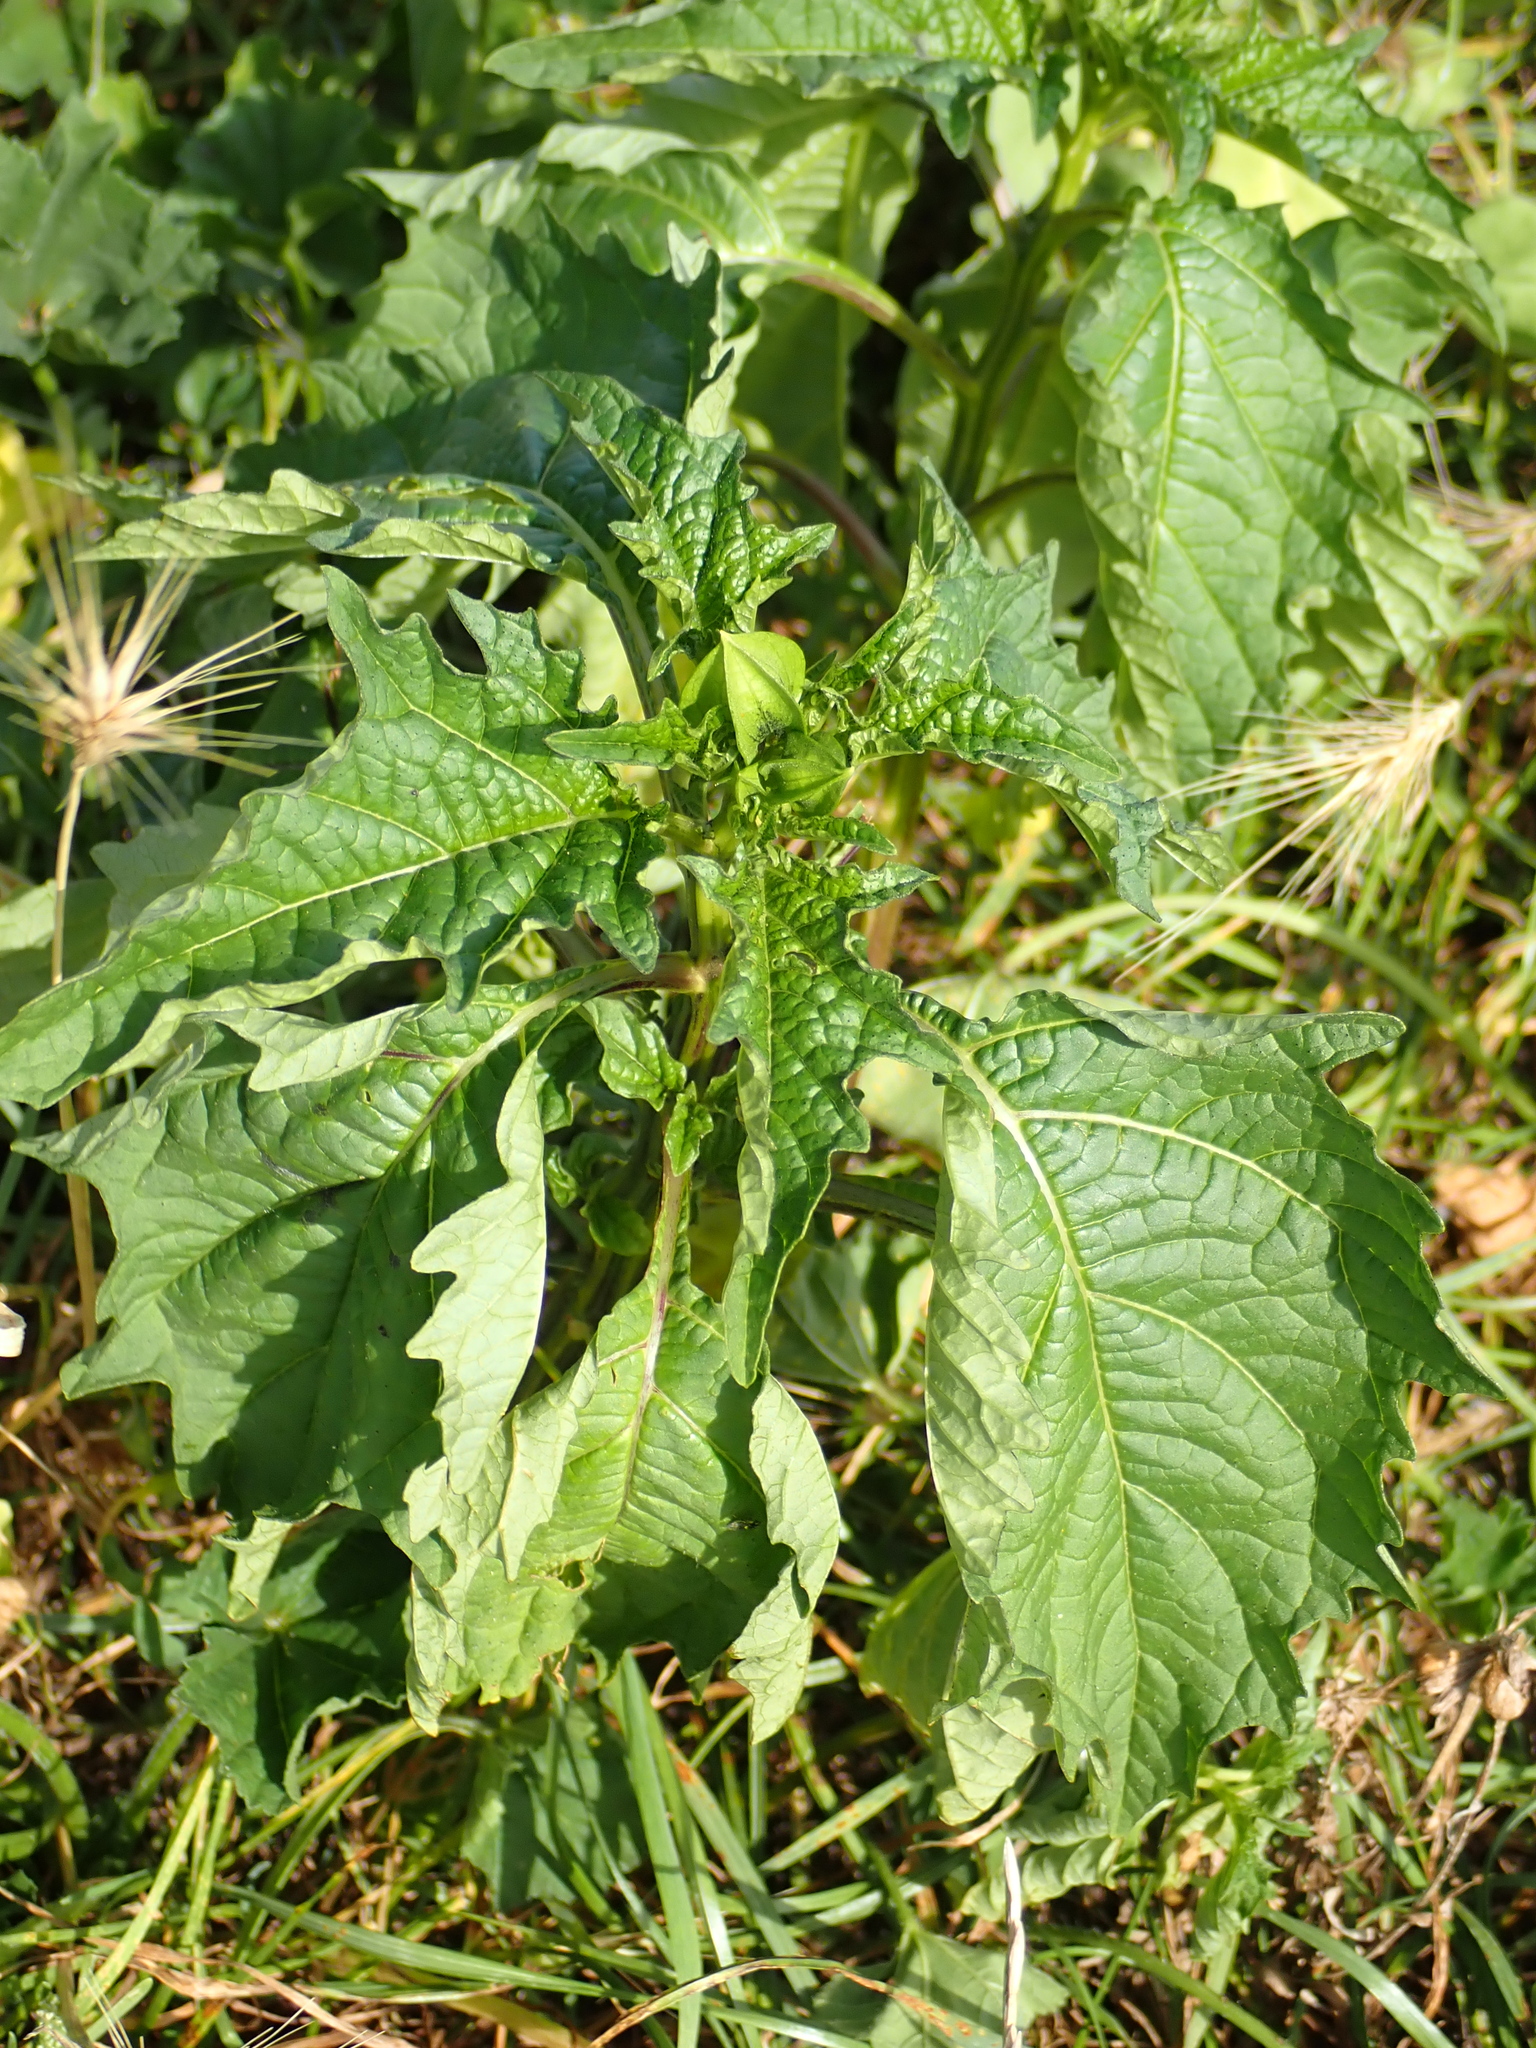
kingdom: Plantae
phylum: Tracheophyta
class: Magnoliopsida
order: Solanales
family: Solanaceae
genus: Nicandra
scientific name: Nicandra physalodes
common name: Apple-of-peru
